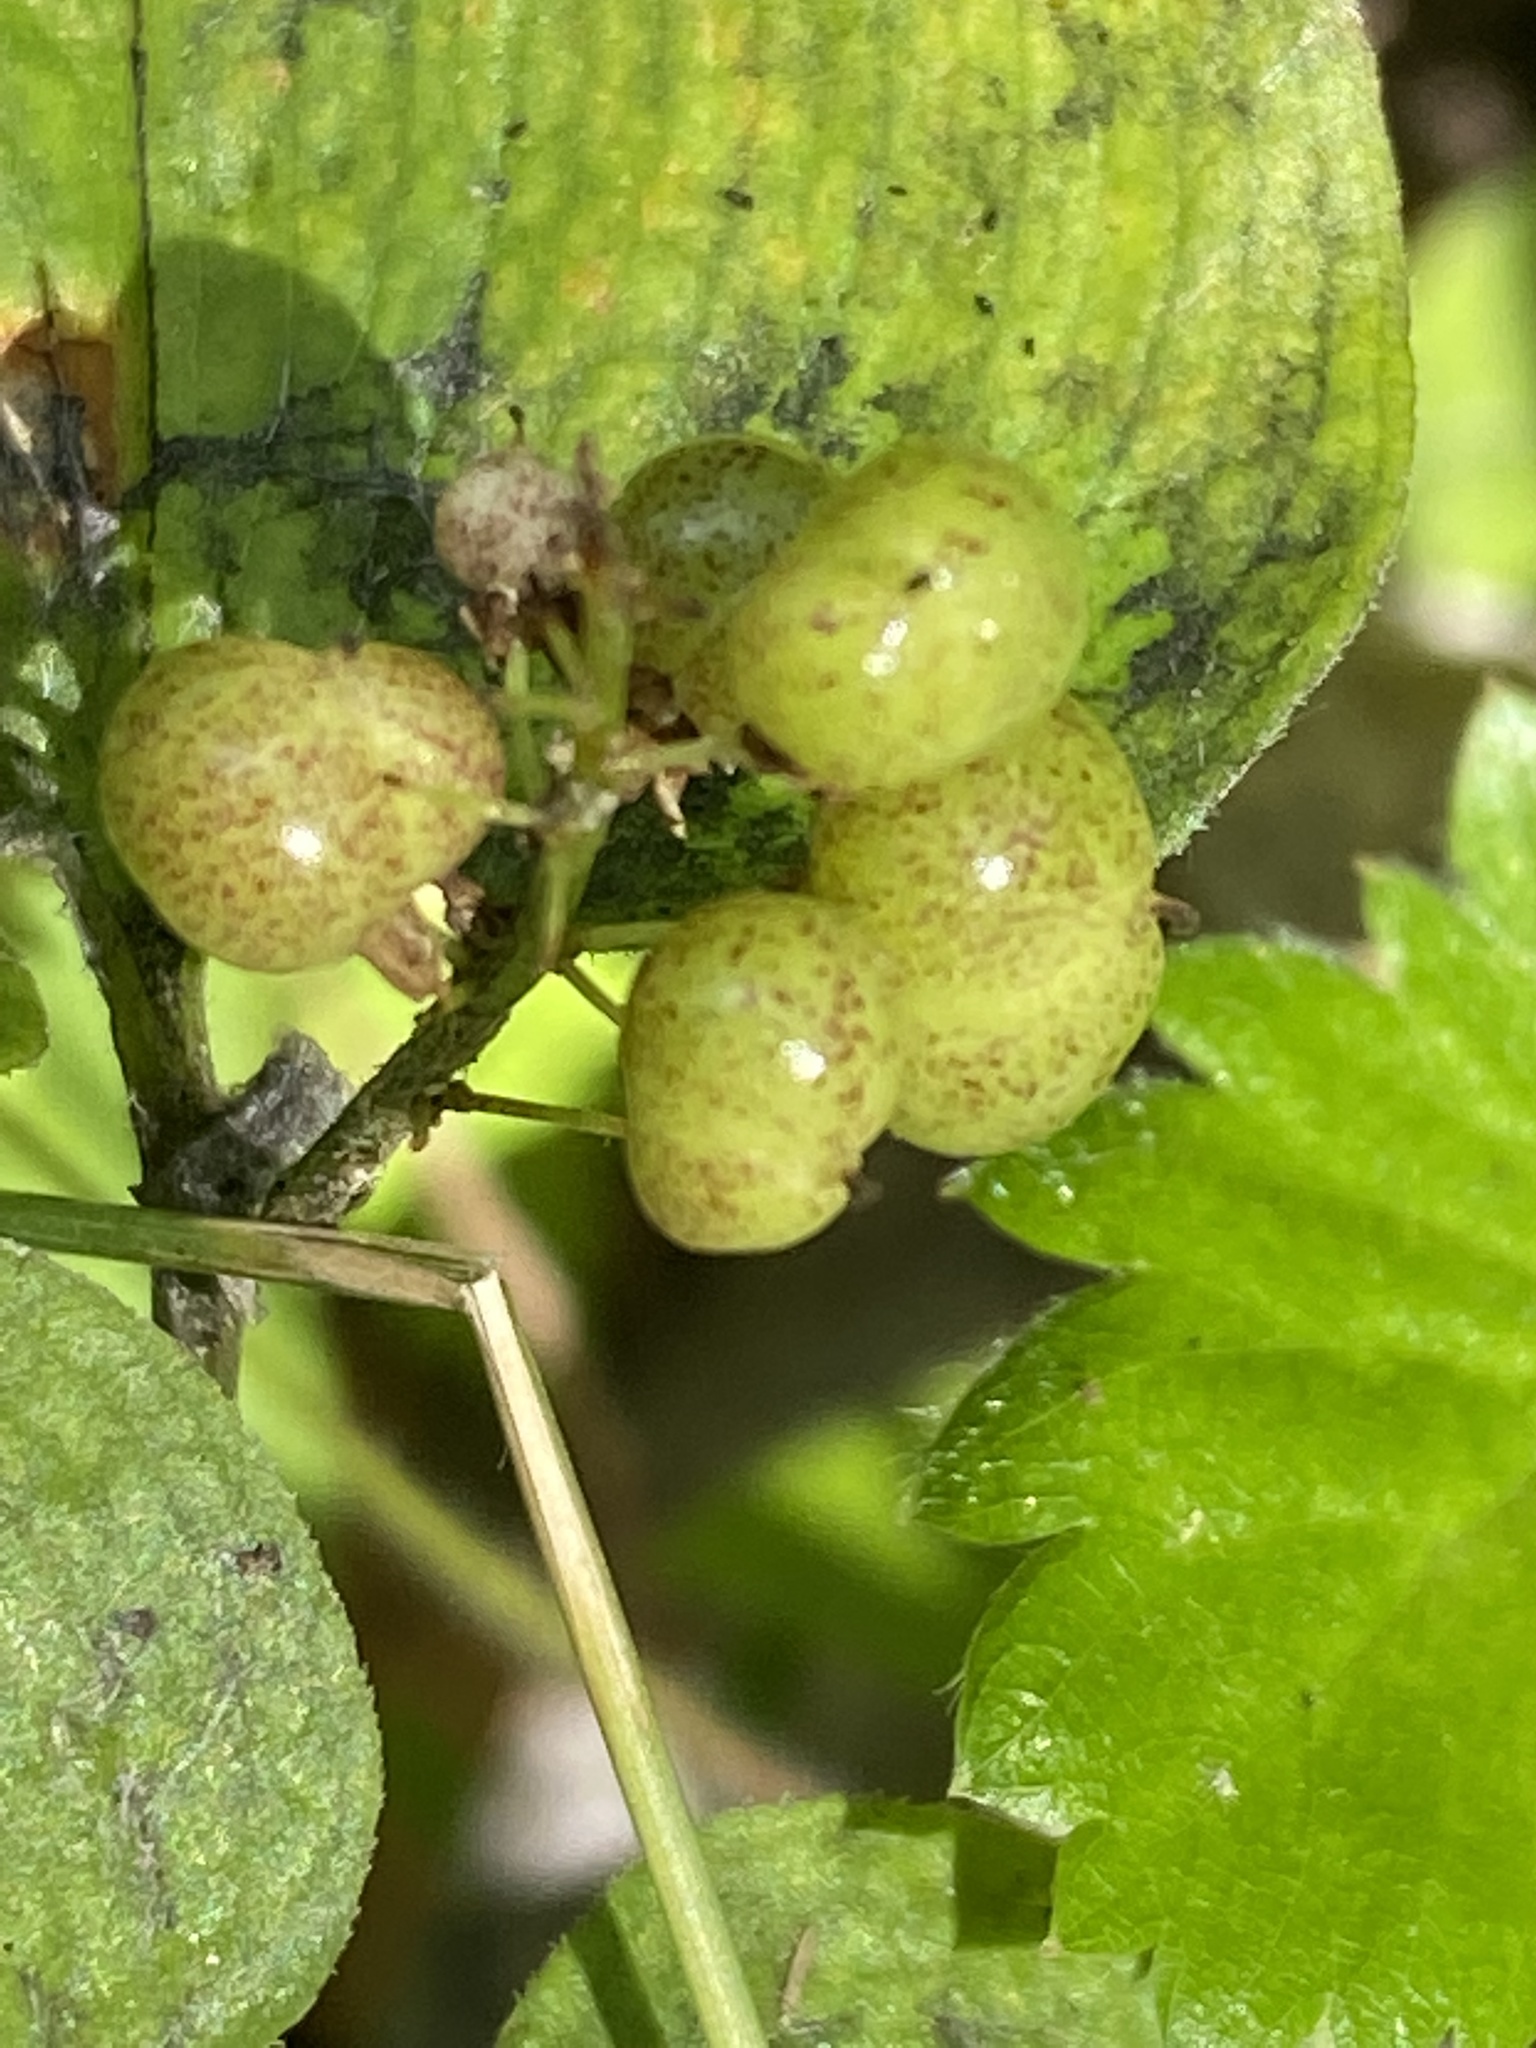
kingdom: Plantae
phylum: Tracheophyta
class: Liliopsida
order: Asparagales
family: Asparagaceae
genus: Maianthemum
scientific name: Maianthemum bifolium
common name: May lily
